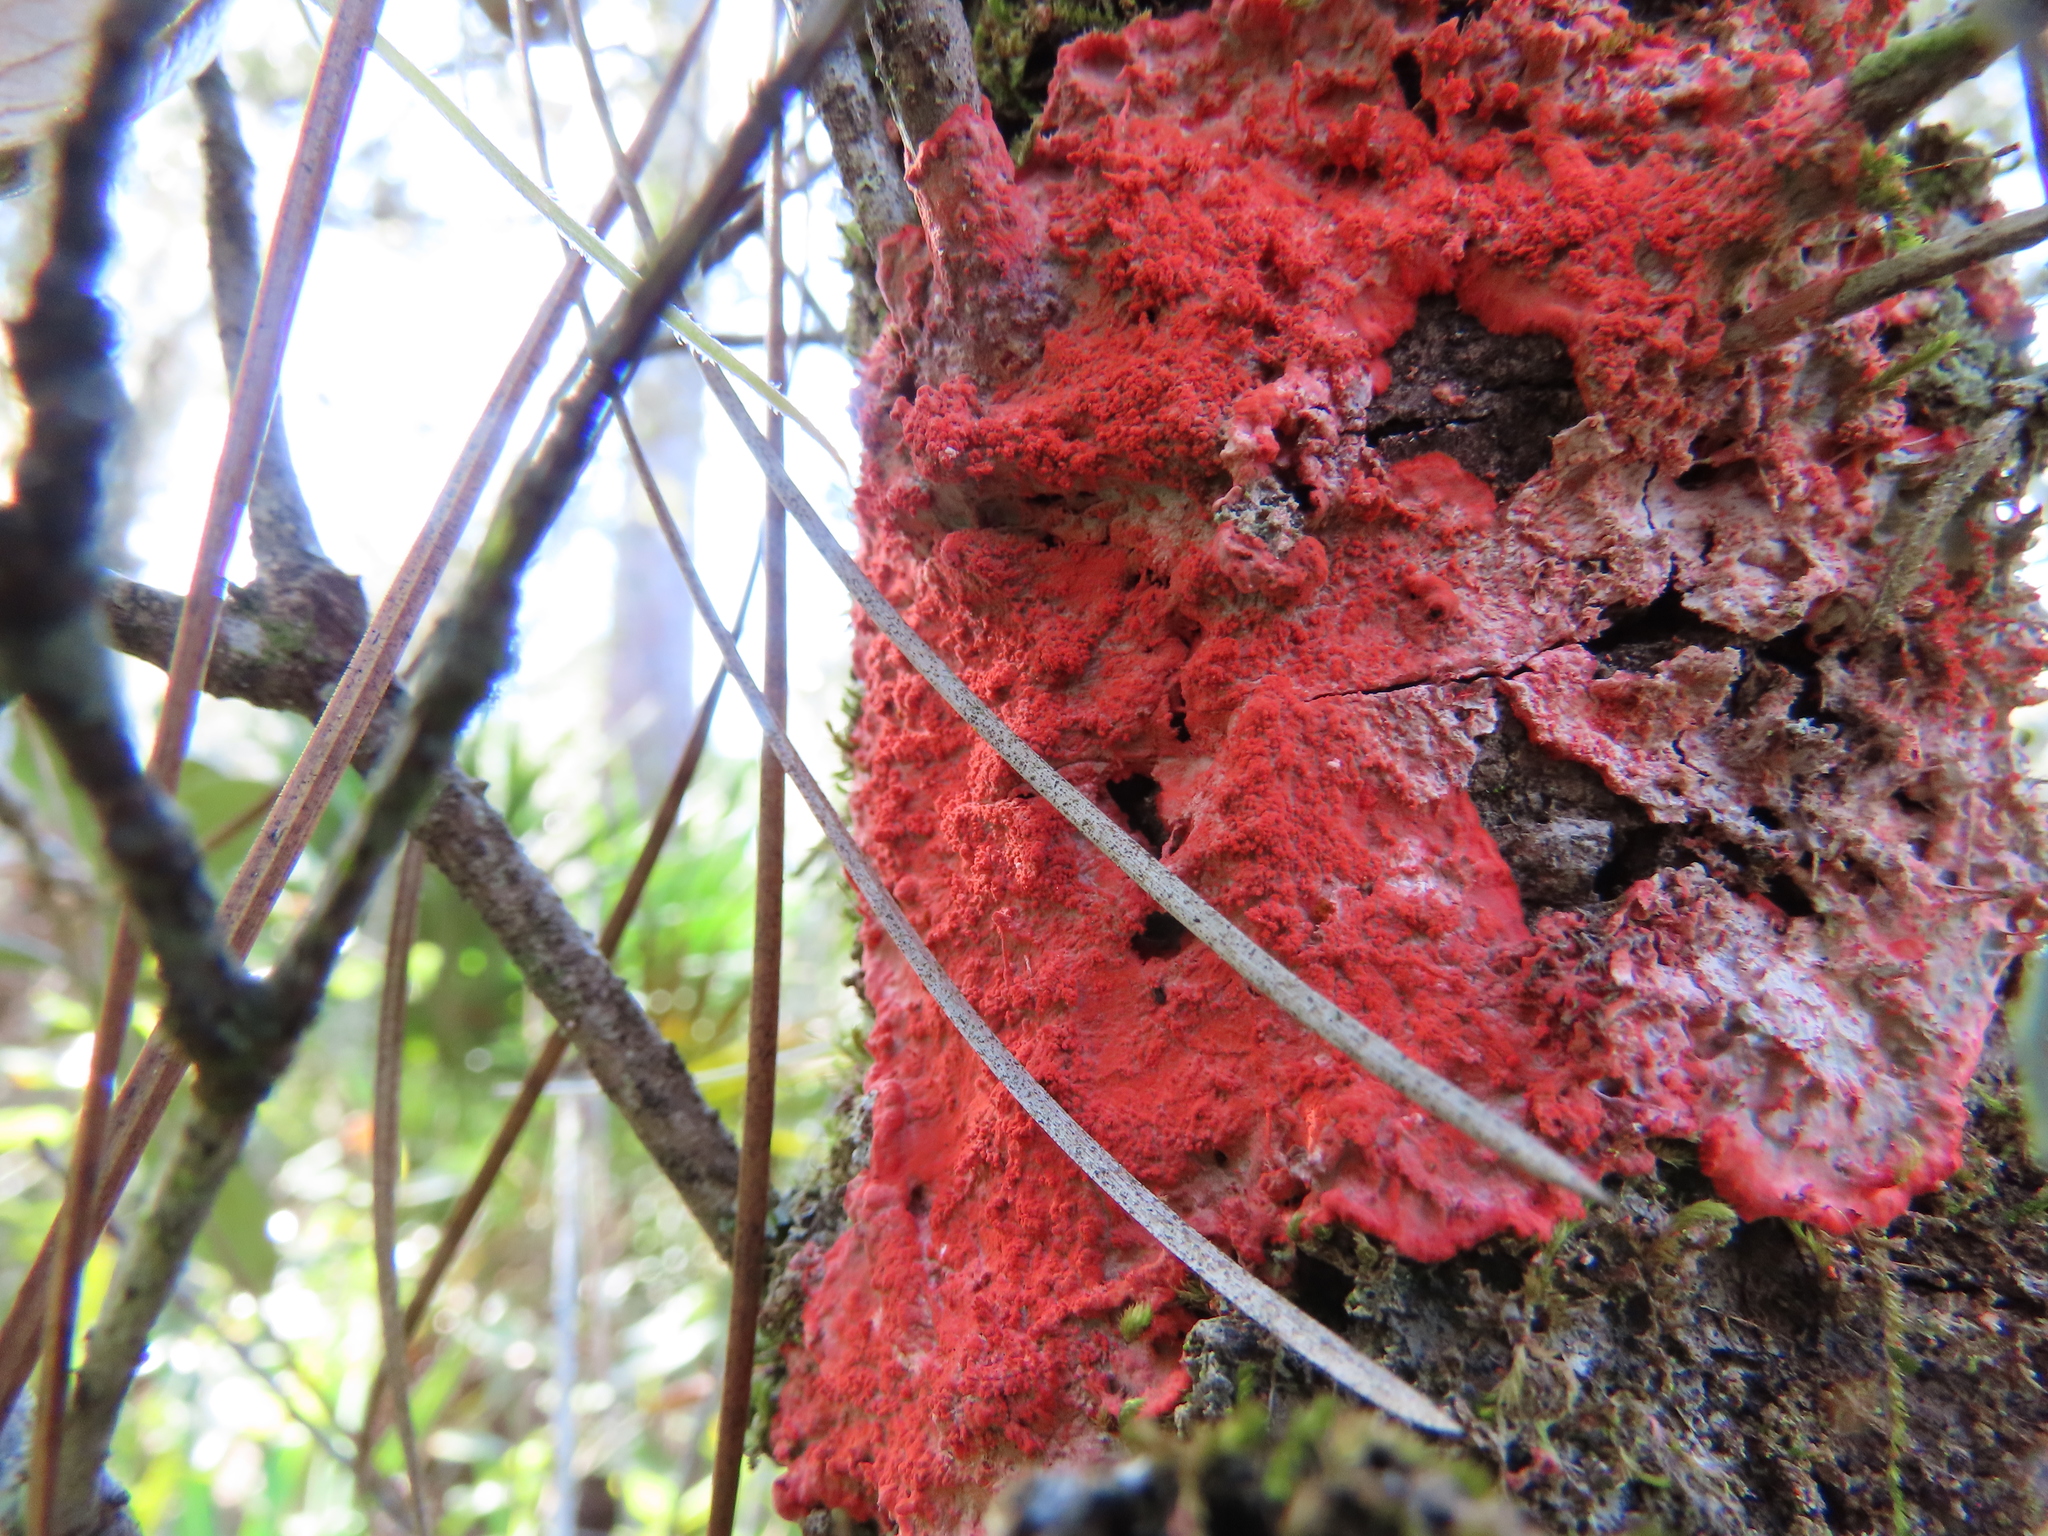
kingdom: Fungi
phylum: Ascomycota
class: Arthoniomycetes
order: Arthoniales
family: Arthoniaceae
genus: Herpothallon
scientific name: Herpothallon rubrocinctum
